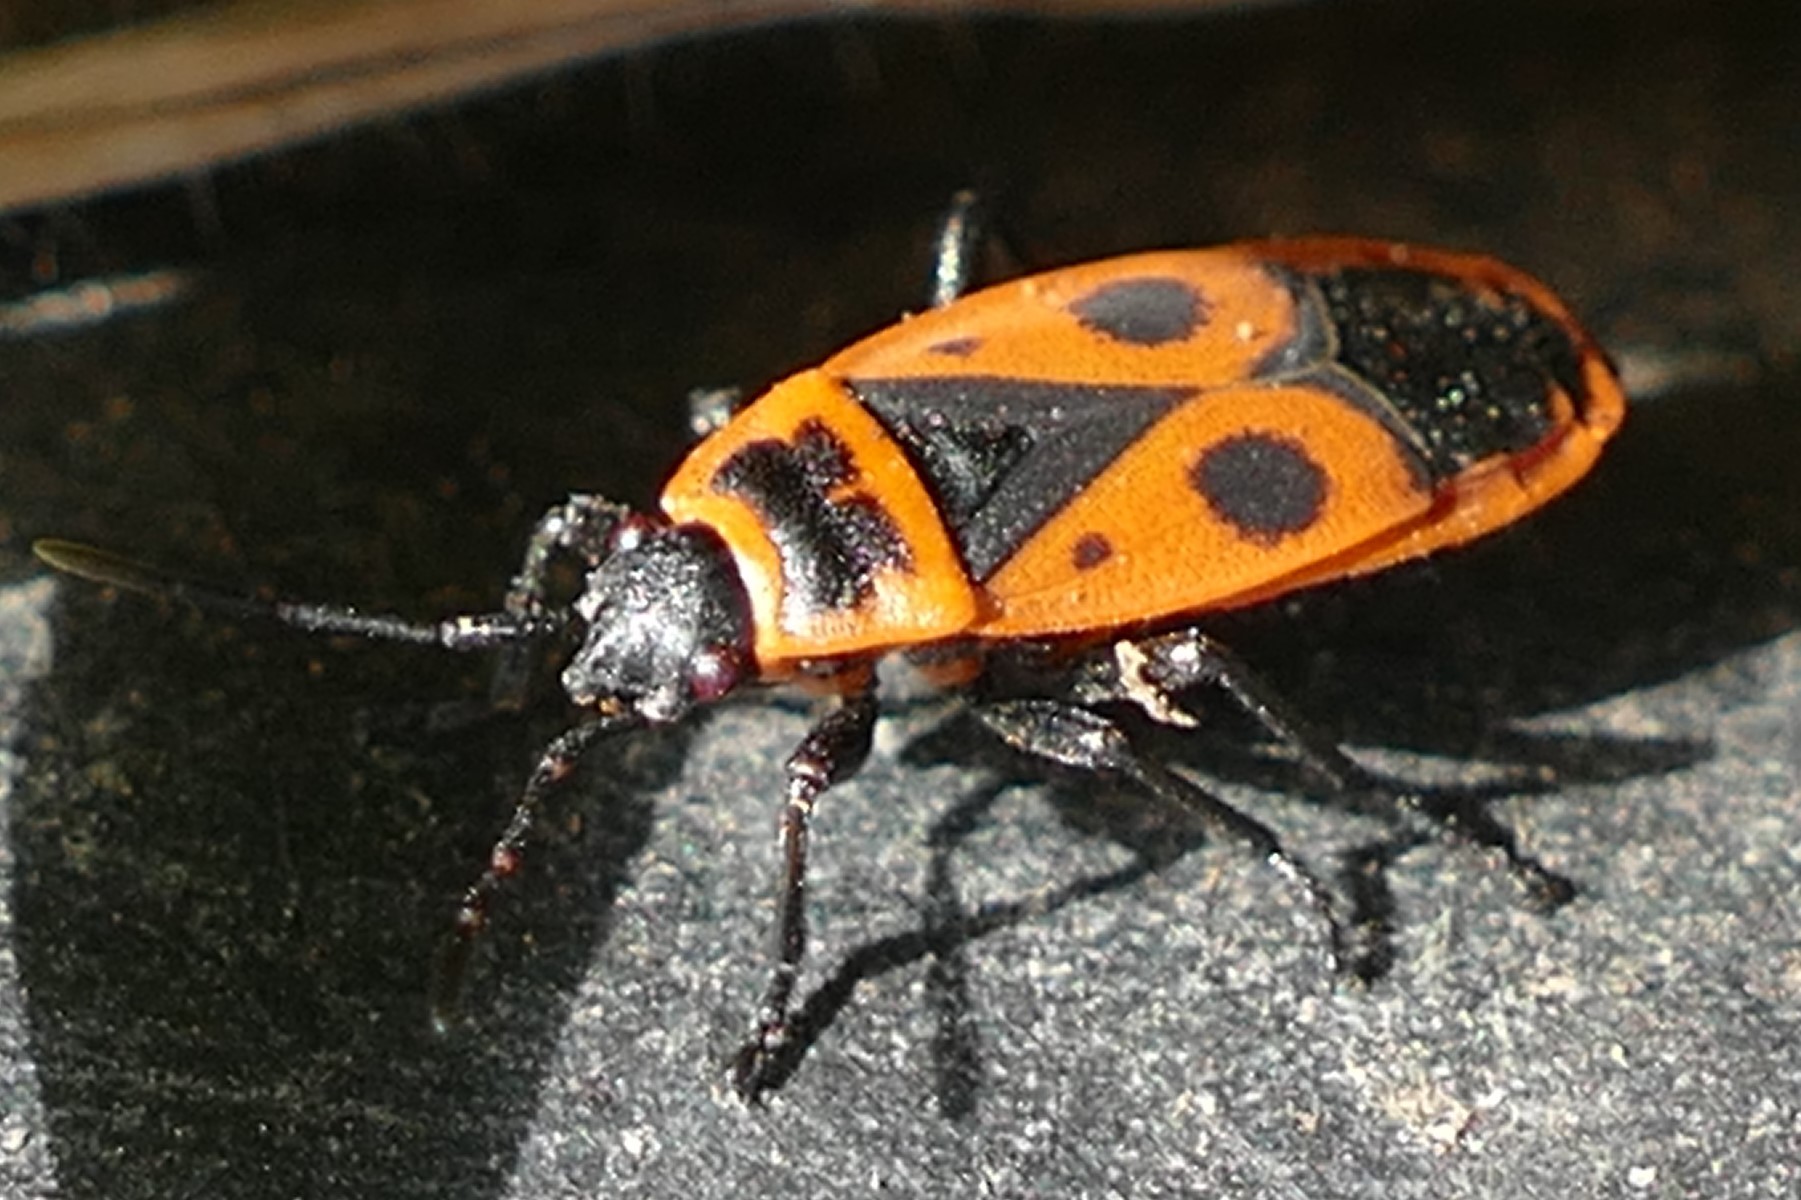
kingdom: Animalia
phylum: Arthropoda
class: Insecta
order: Hemiptera
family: Pyrrhocoridae
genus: Pyrrhocoris
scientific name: Pyrrhocoris apterus
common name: Firebug
